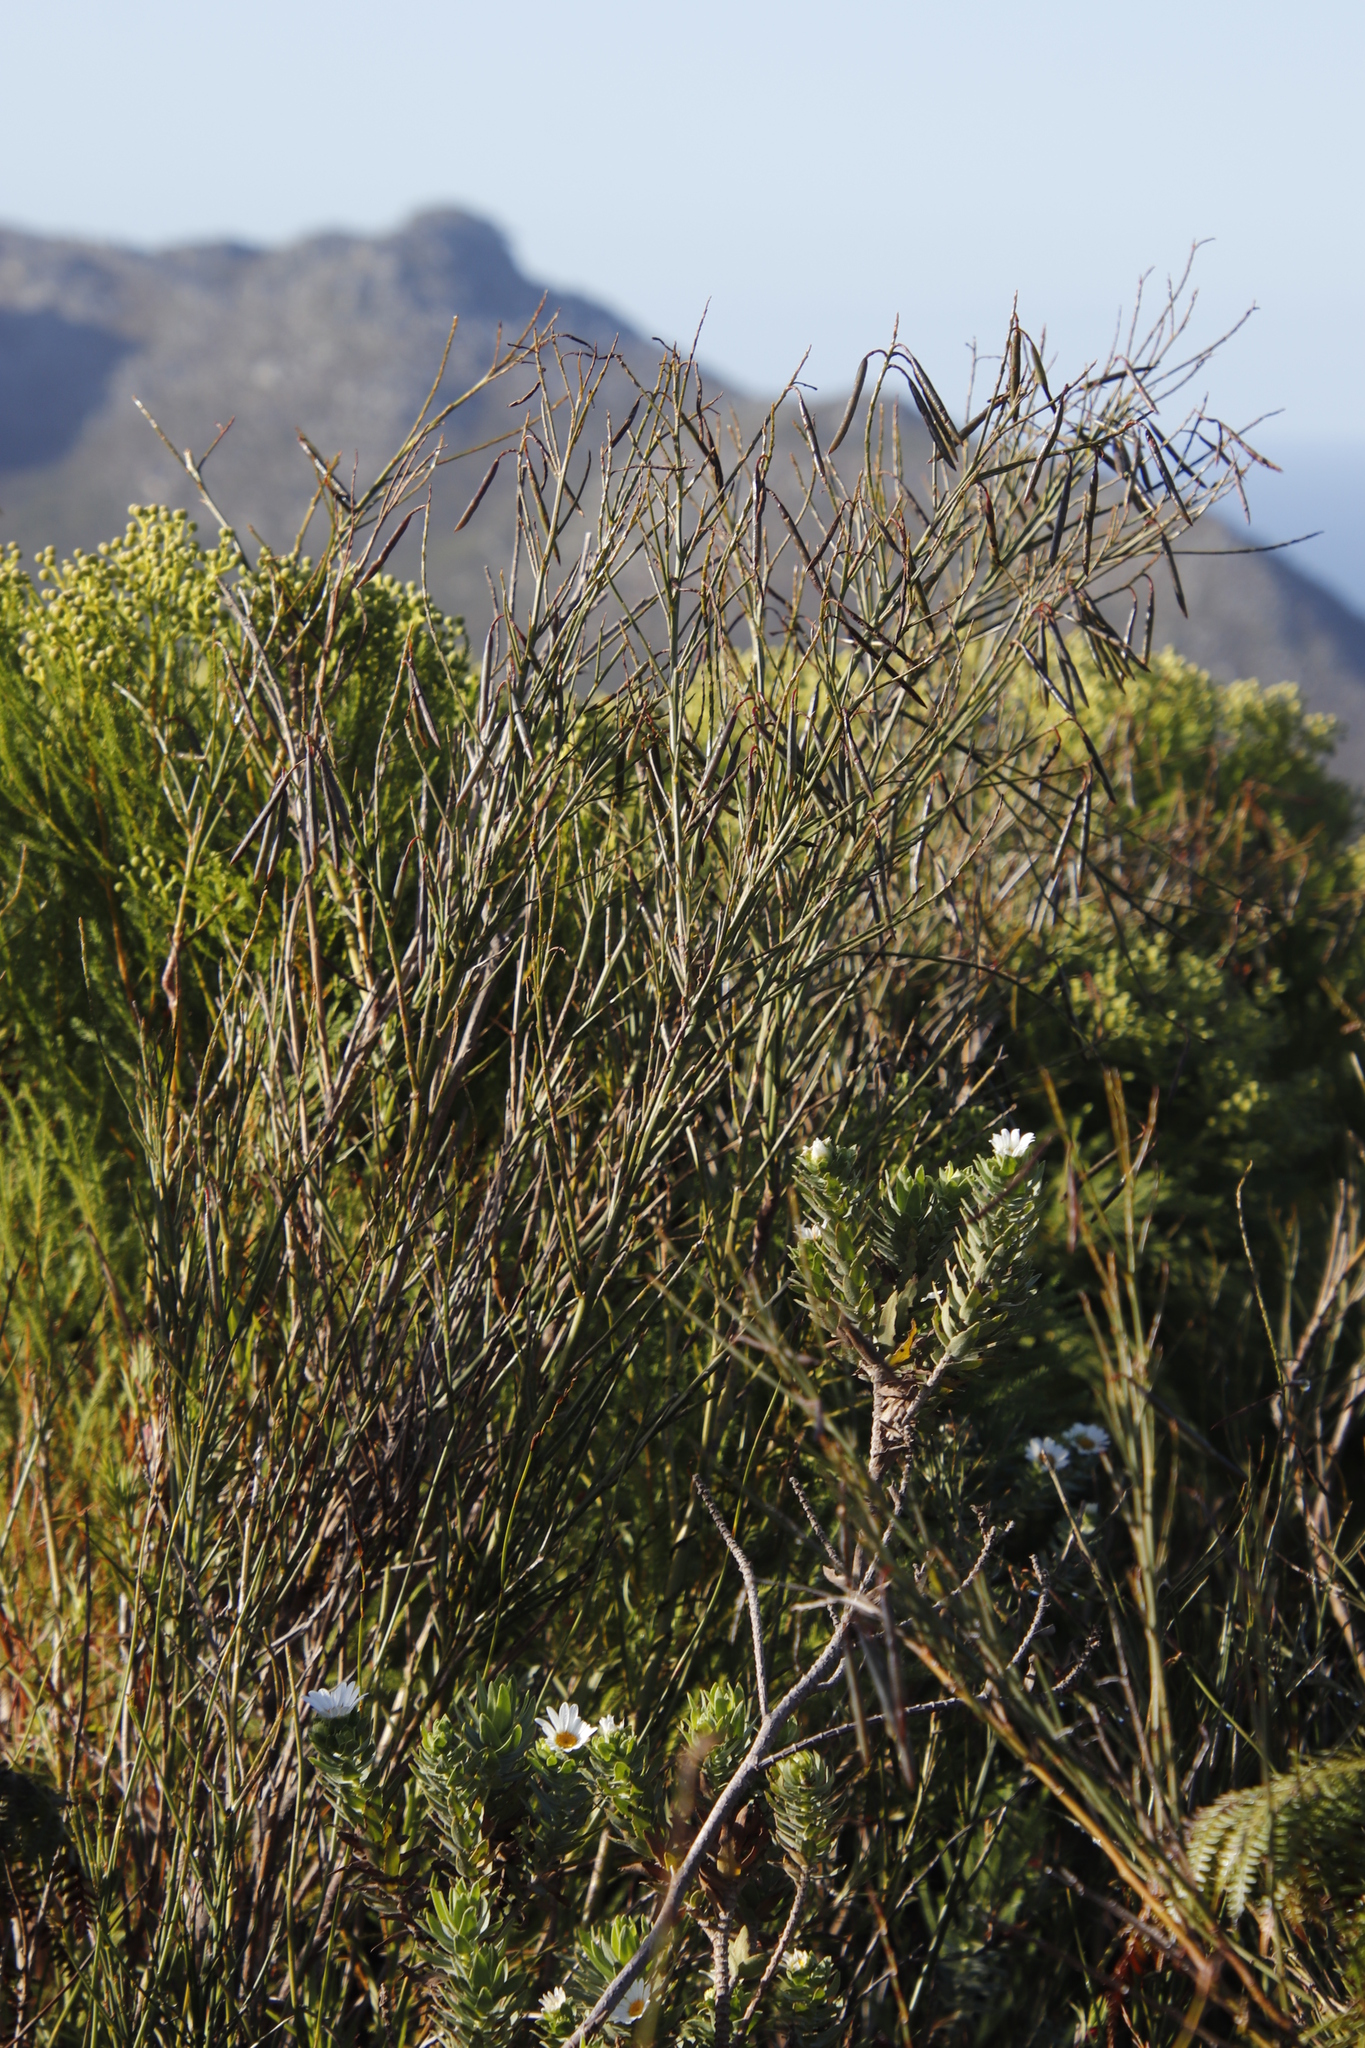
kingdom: Plantae
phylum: Tracheophyta
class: Magnoliopsida
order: Fabales
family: Fabaceae
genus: Indigofera
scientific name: Indigofera filifolia
